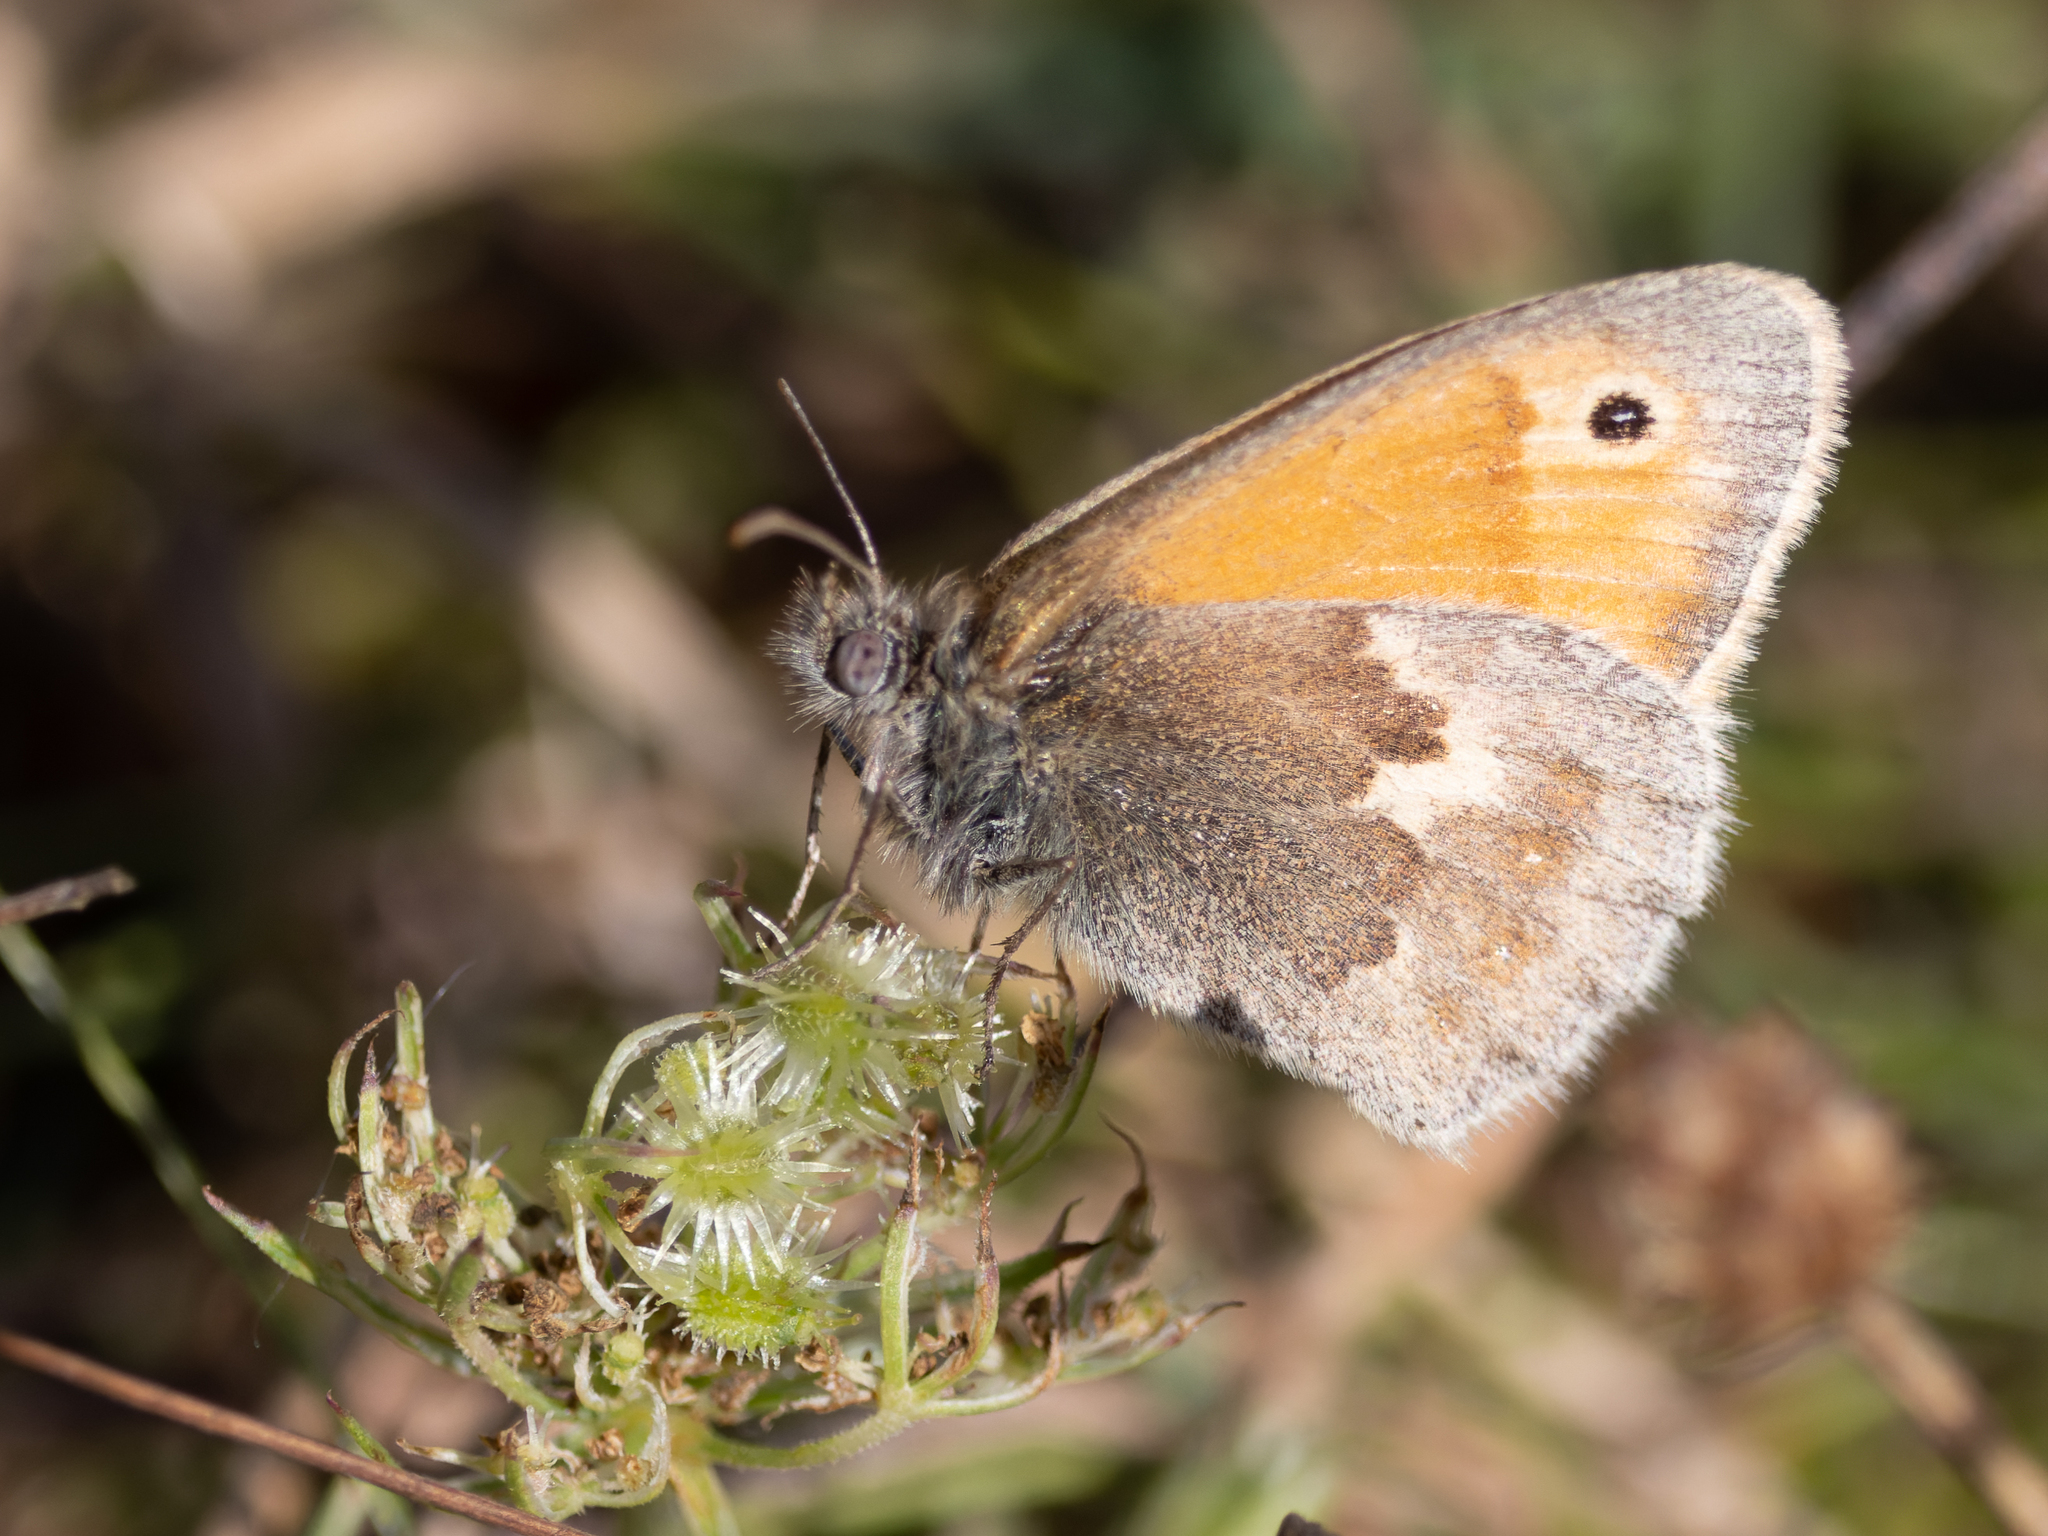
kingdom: Animalia
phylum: Arthropoda
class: Insecta
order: Lepidoptera
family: Nymphalidae
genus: Coenonympha
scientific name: Coenonympha pamphilus
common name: Small heath
